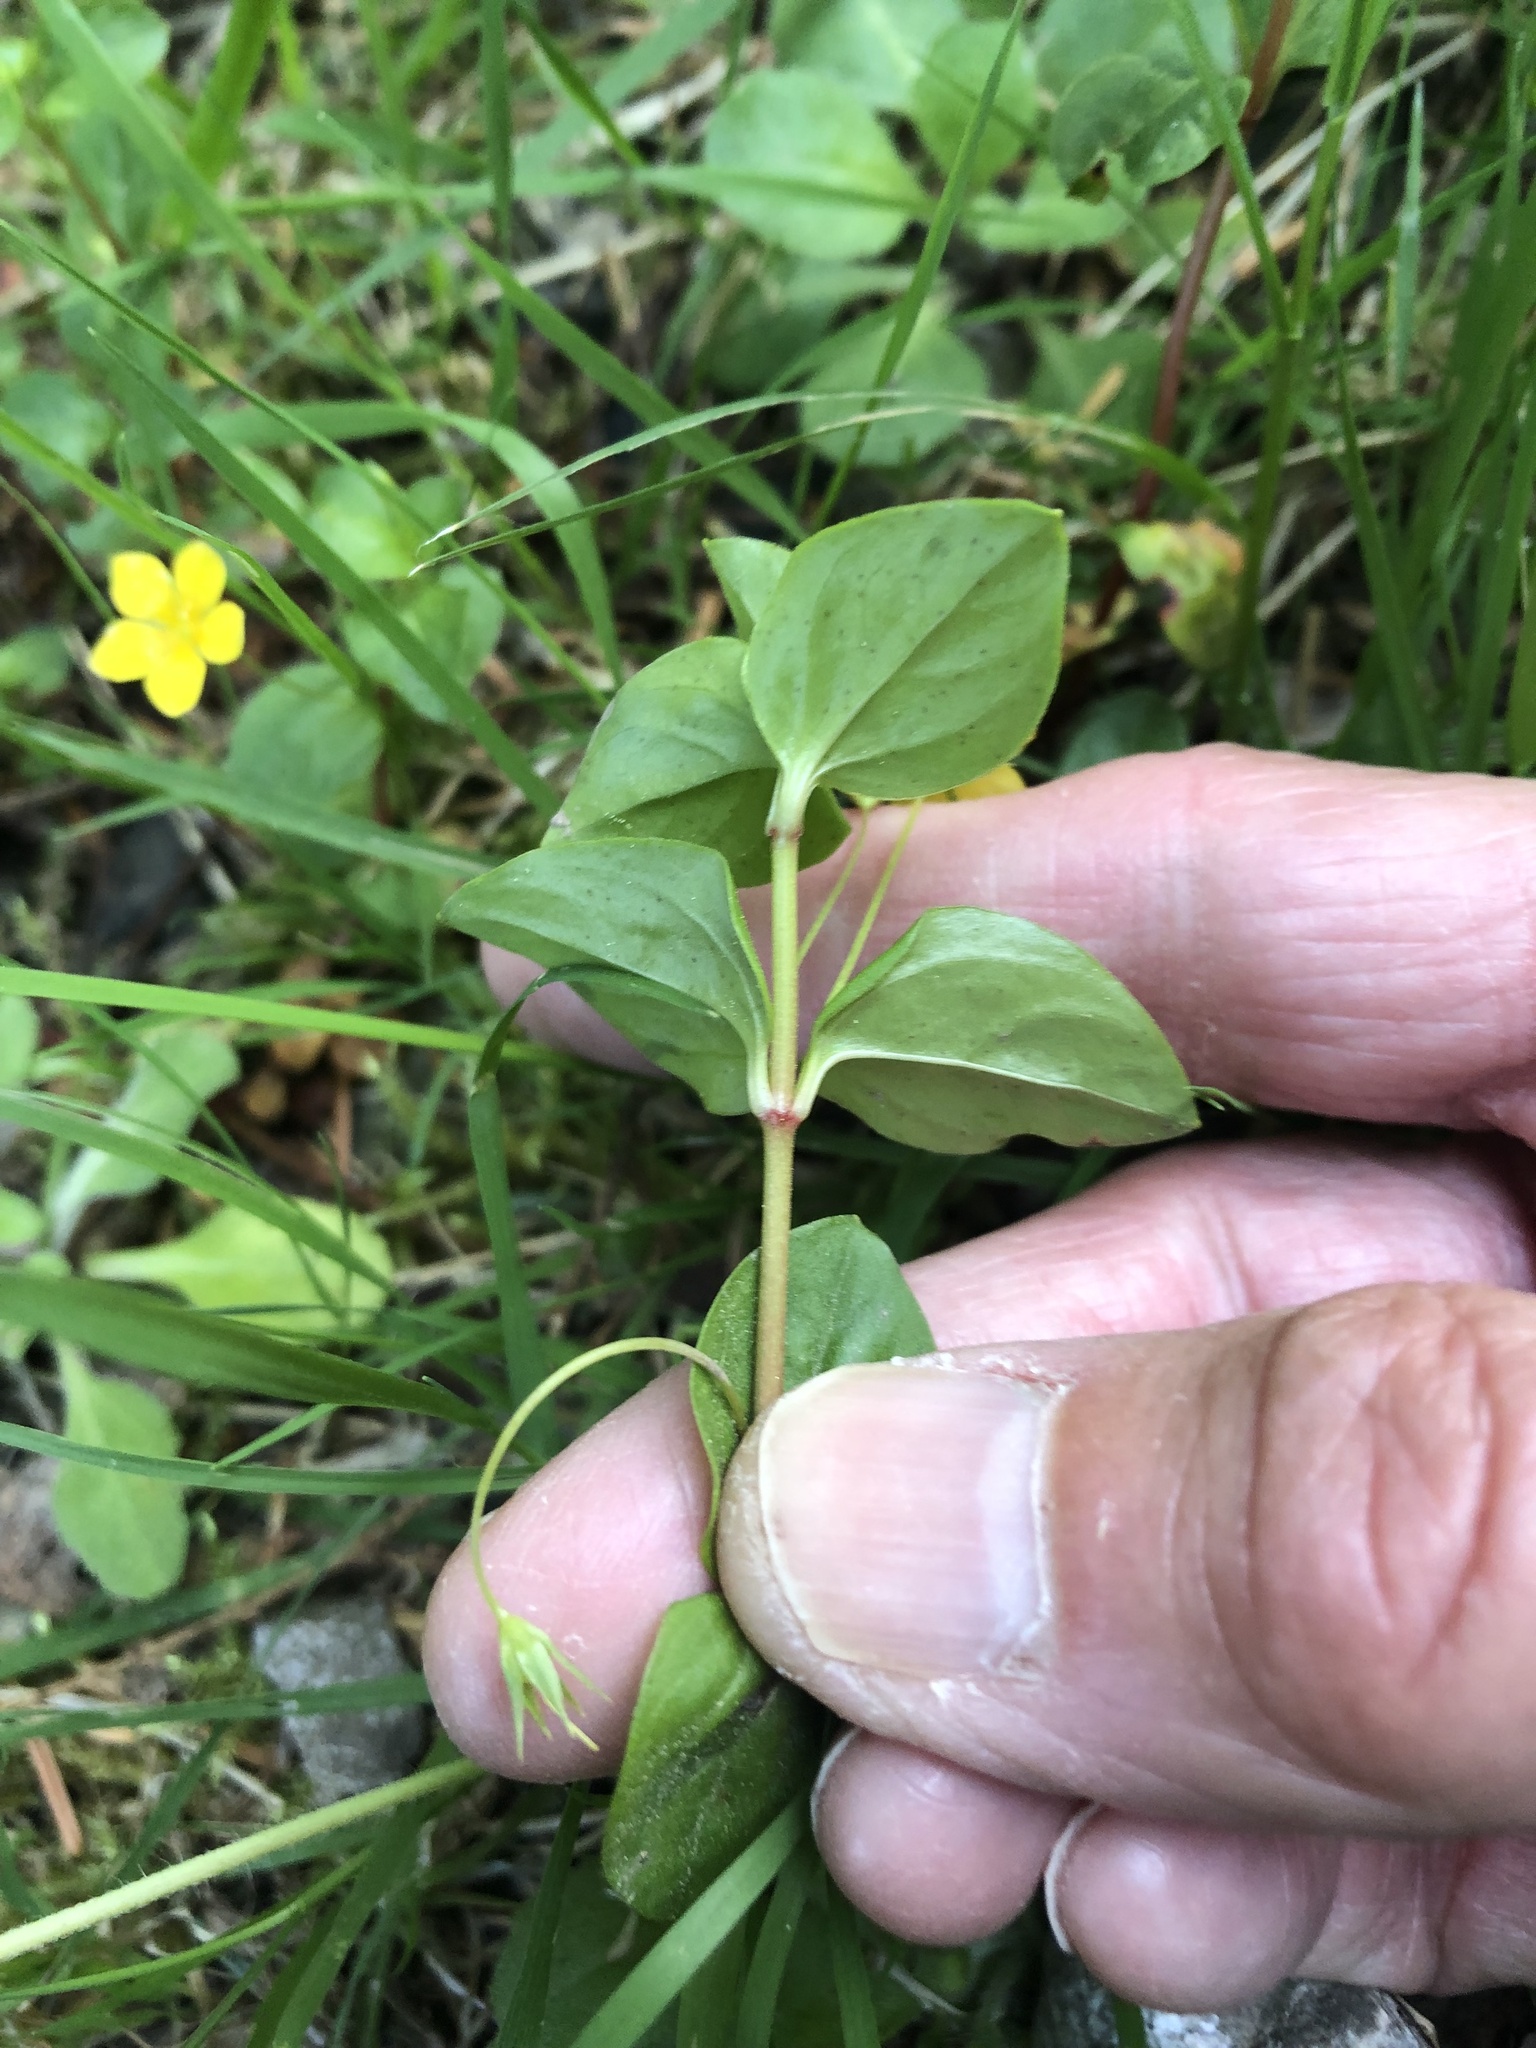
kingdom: Plantae
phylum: Tracheophyta
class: Magnoliopsida
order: Ericales
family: Primulaceae
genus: Lysimachia
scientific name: Lysimachia nemorum
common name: Yellow pimpernel
